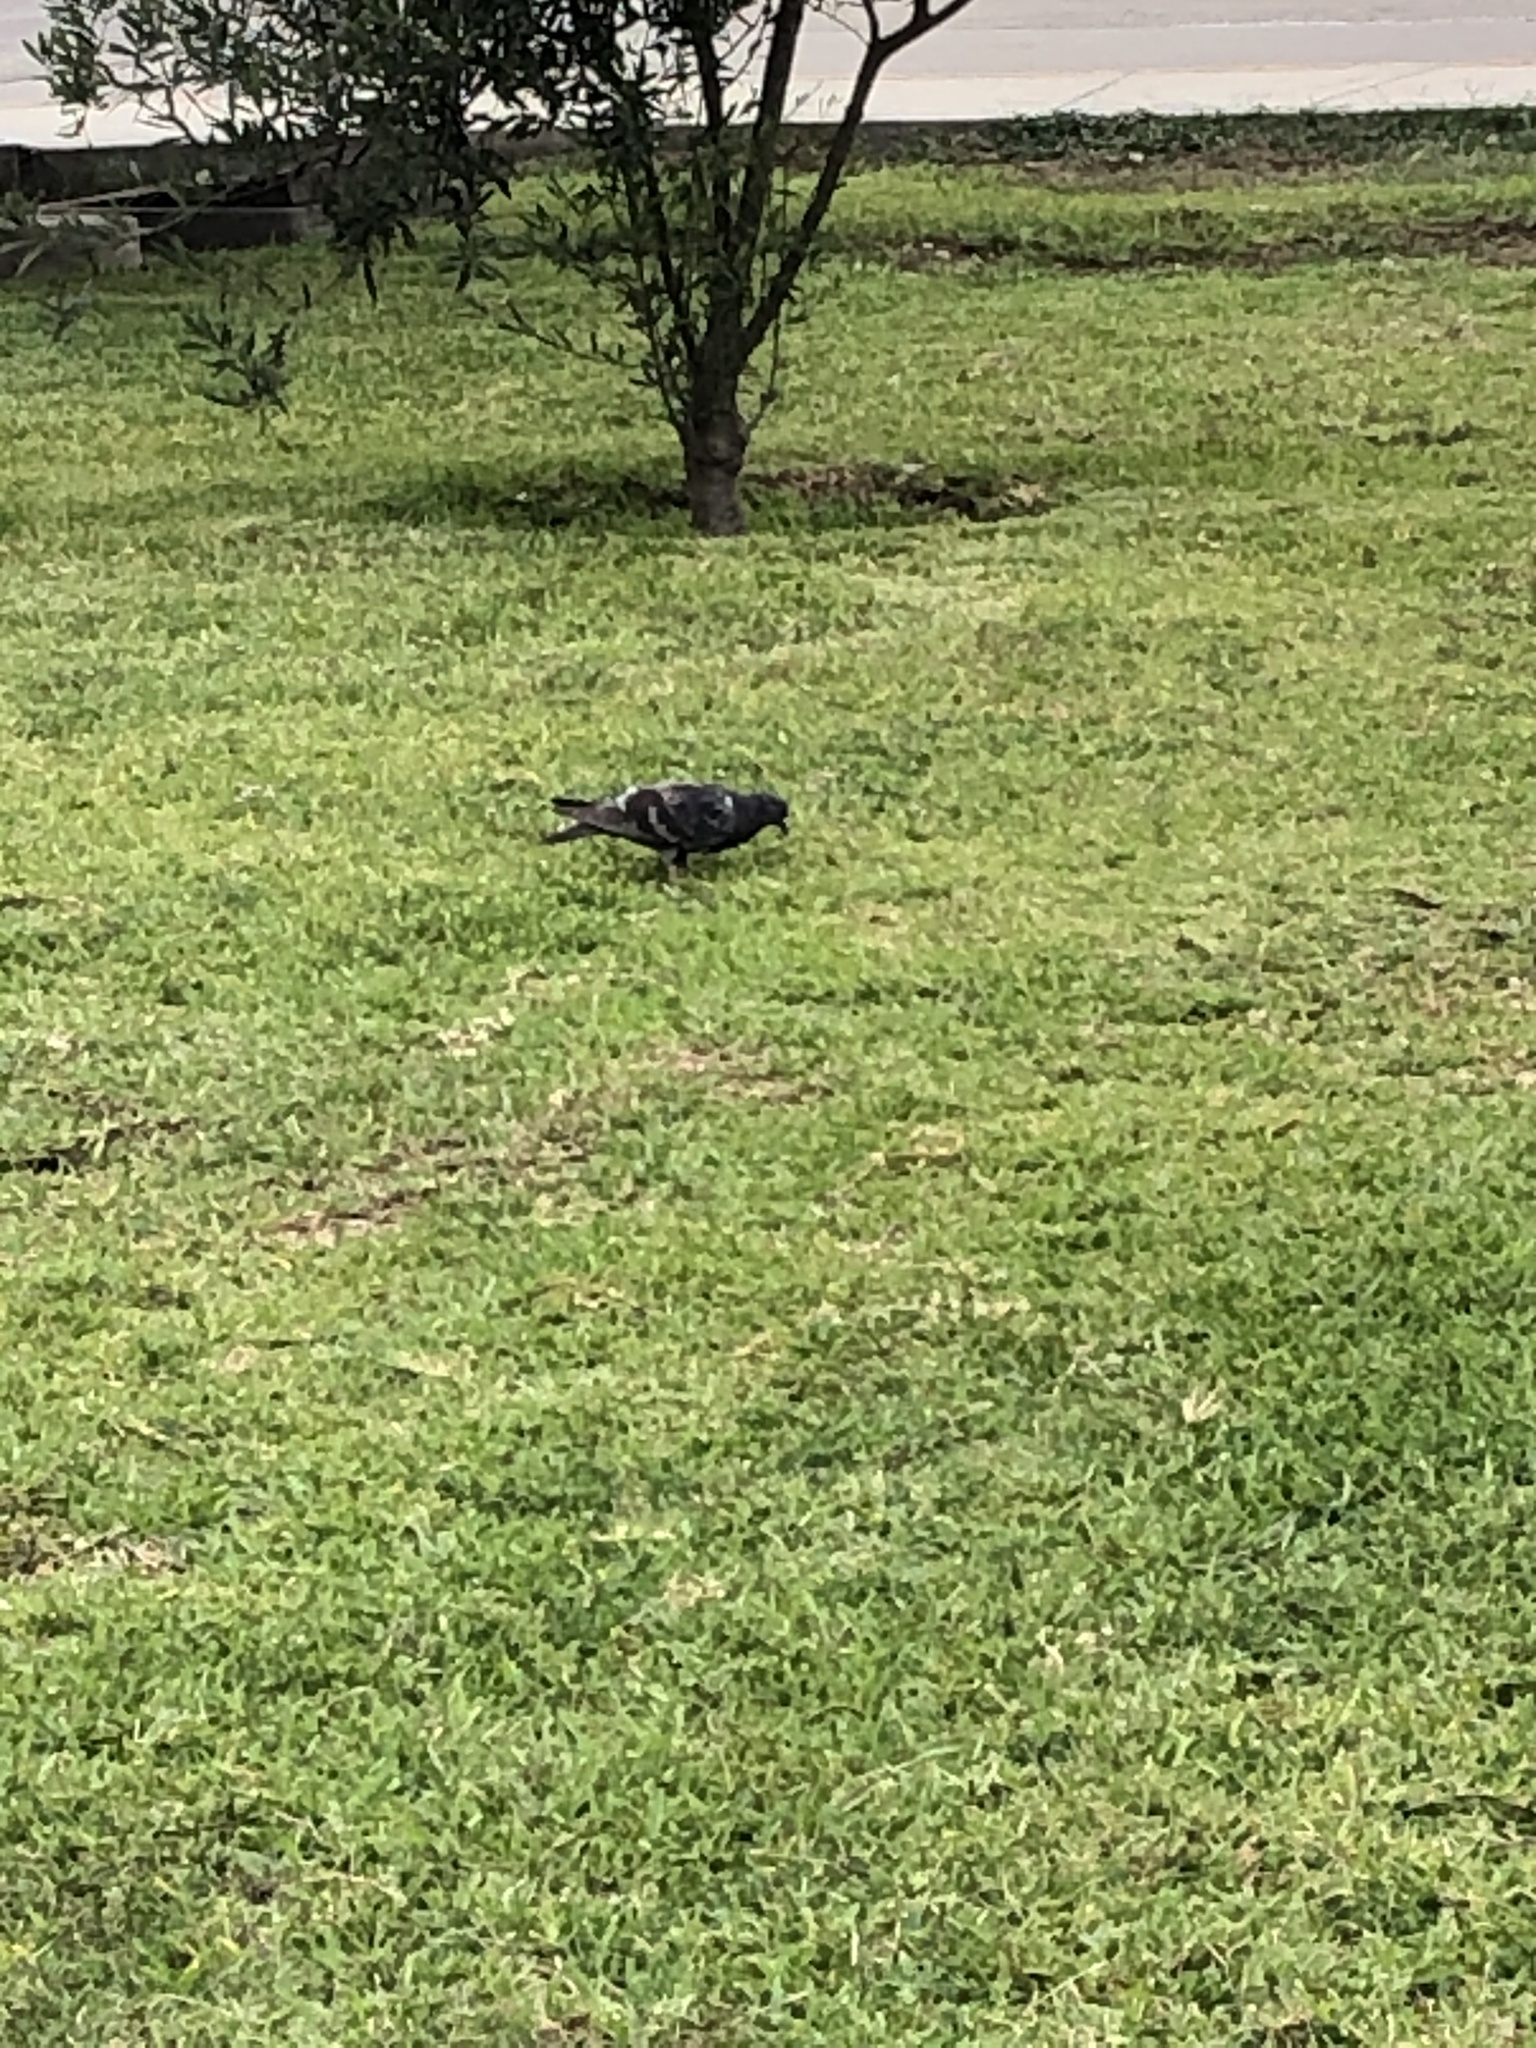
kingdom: Animalia
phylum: Chordata
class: Aves
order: Columbiformes
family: Columbidae
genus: Columba
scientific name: Columba livia
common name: Rock pigeon
